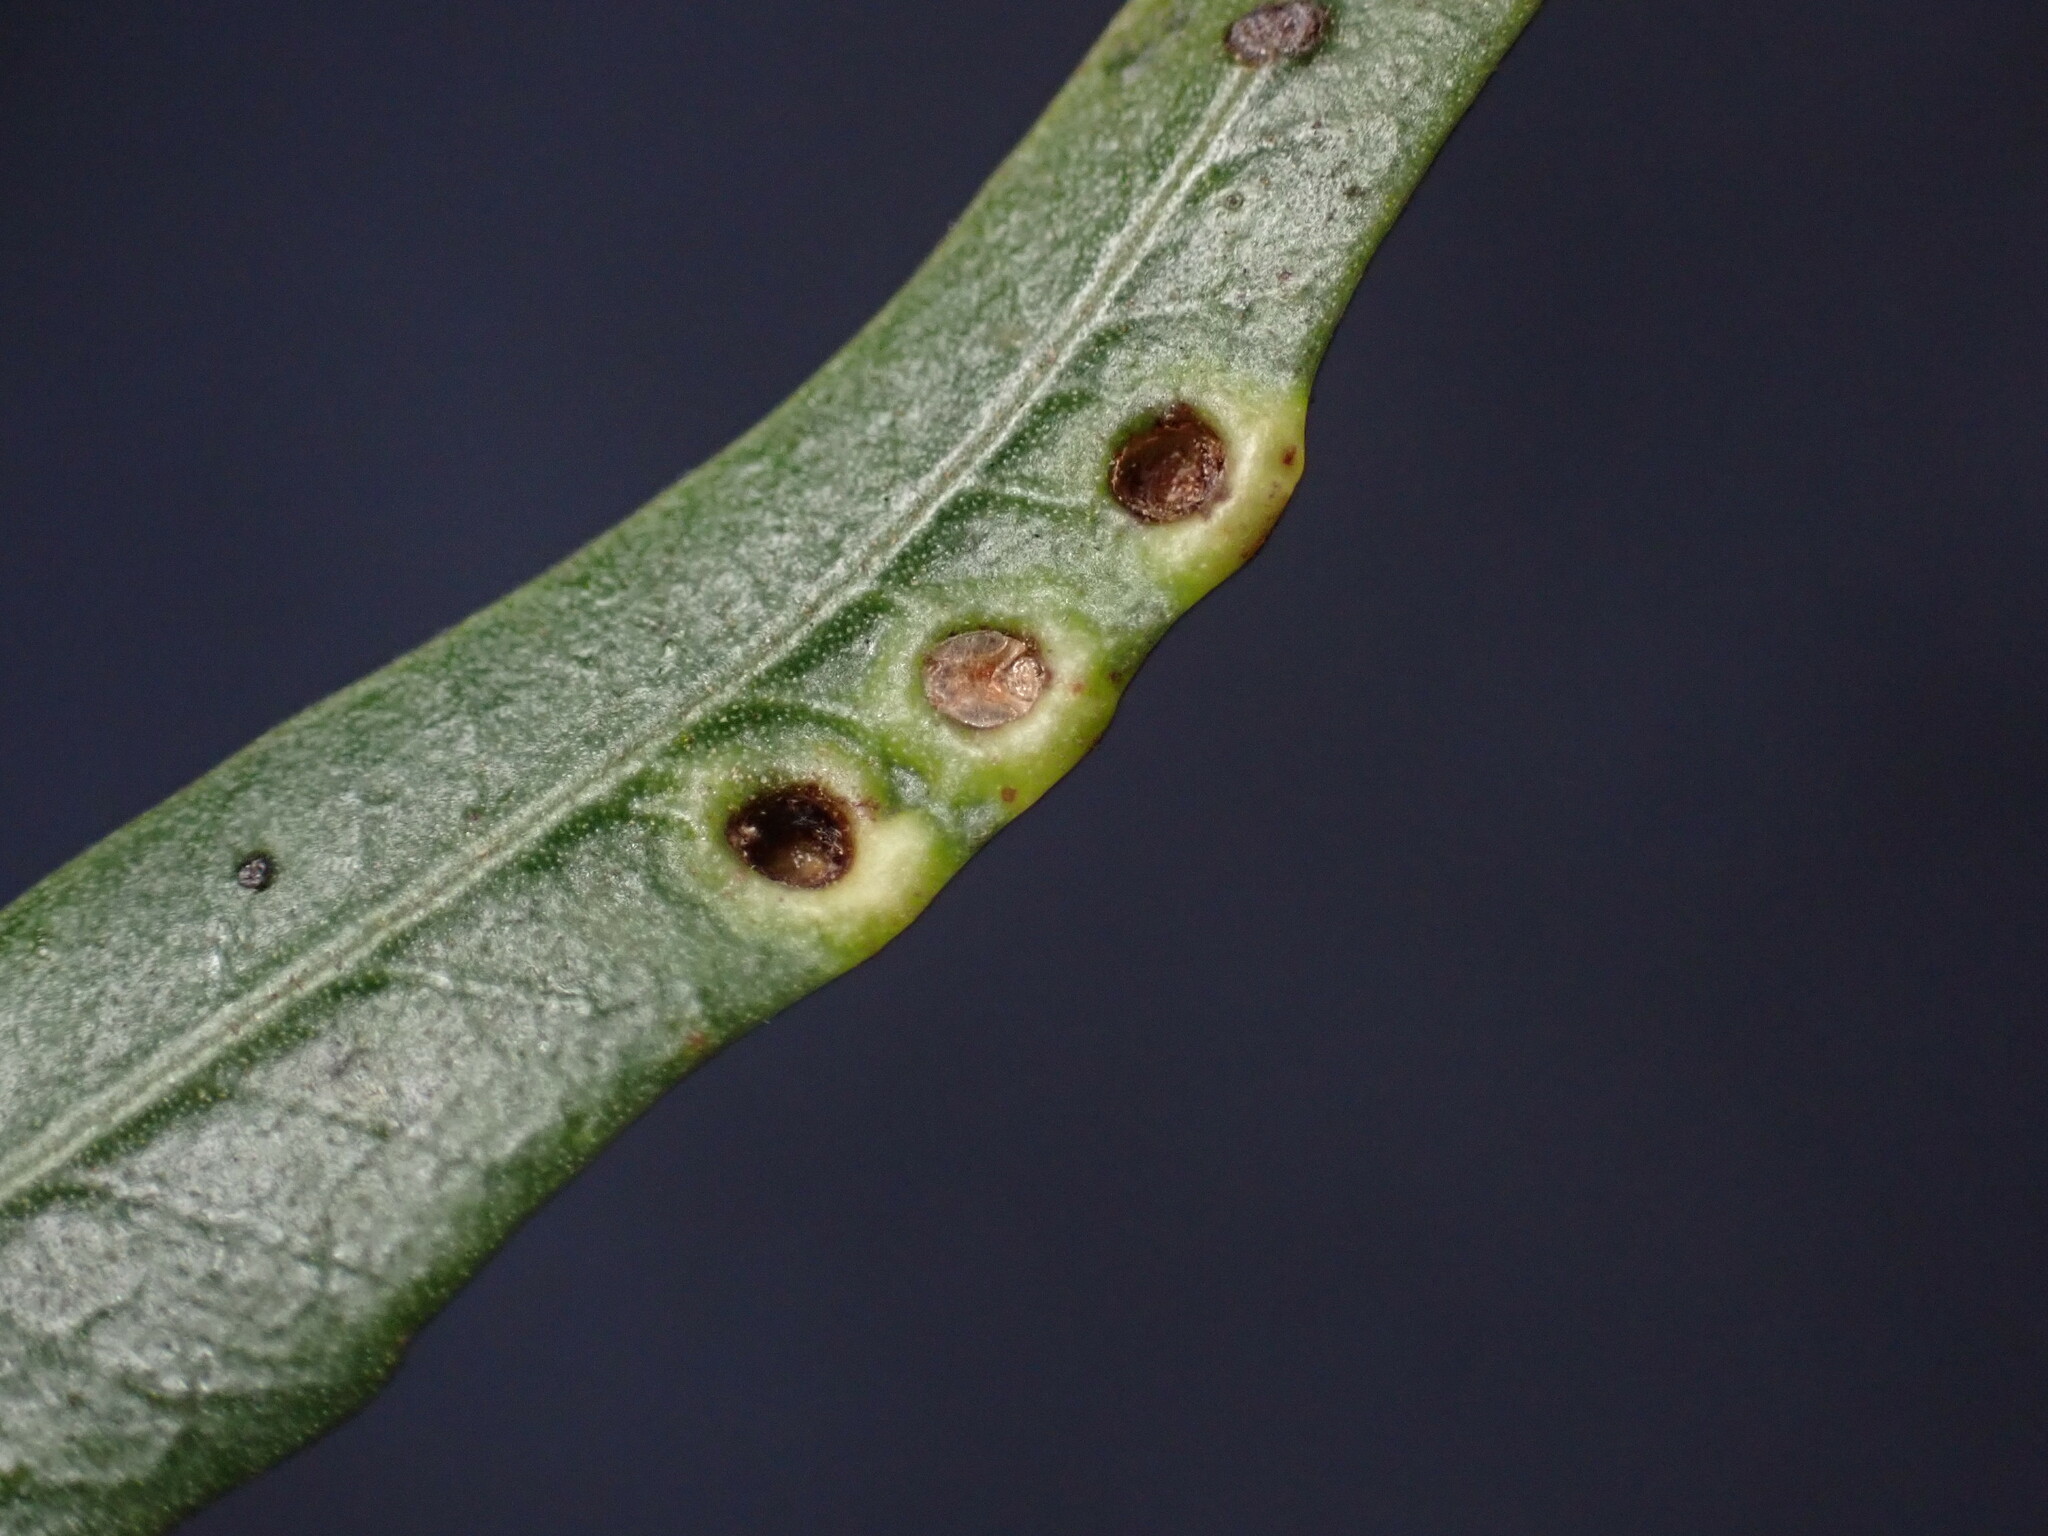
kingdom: Animalia
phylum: Arthropoda
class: Insecta
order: Hemiptera
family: Calophyidae
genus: Calophya
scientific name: Calophya schini
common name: Pepper tree psyllid
